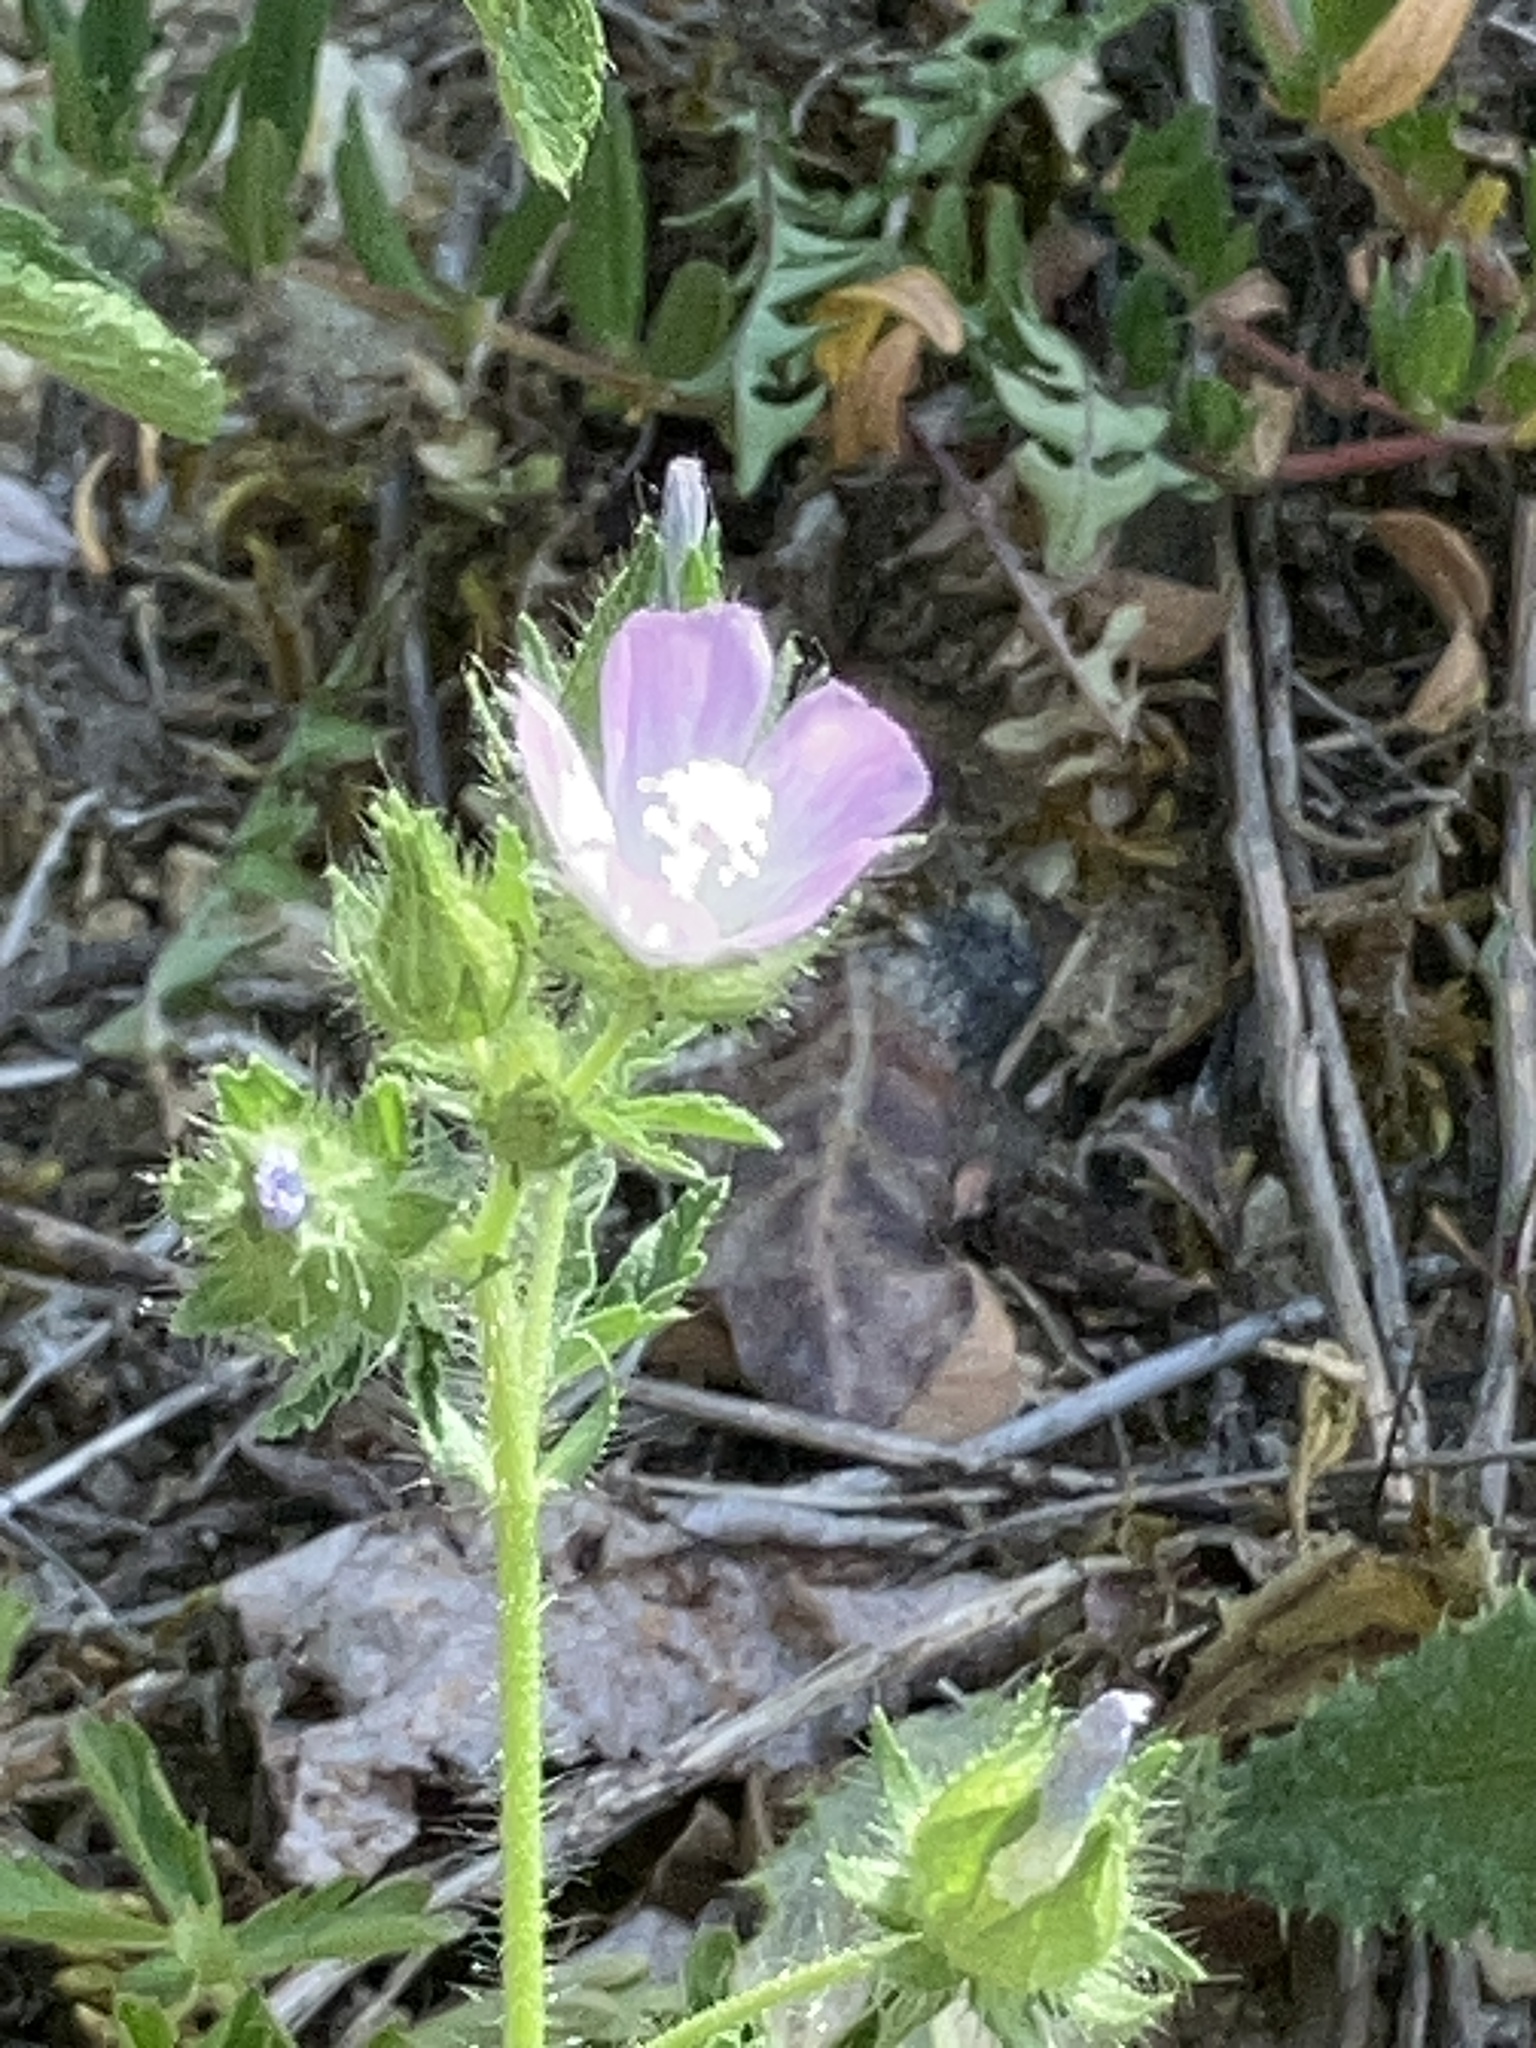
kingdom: Plantae
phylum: Tracheophyta
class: Magnoliopsida
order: Malvales
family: Malvaceae
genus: Althaea
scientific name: Althaea hirsuta
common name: Rough marsh-mallow
